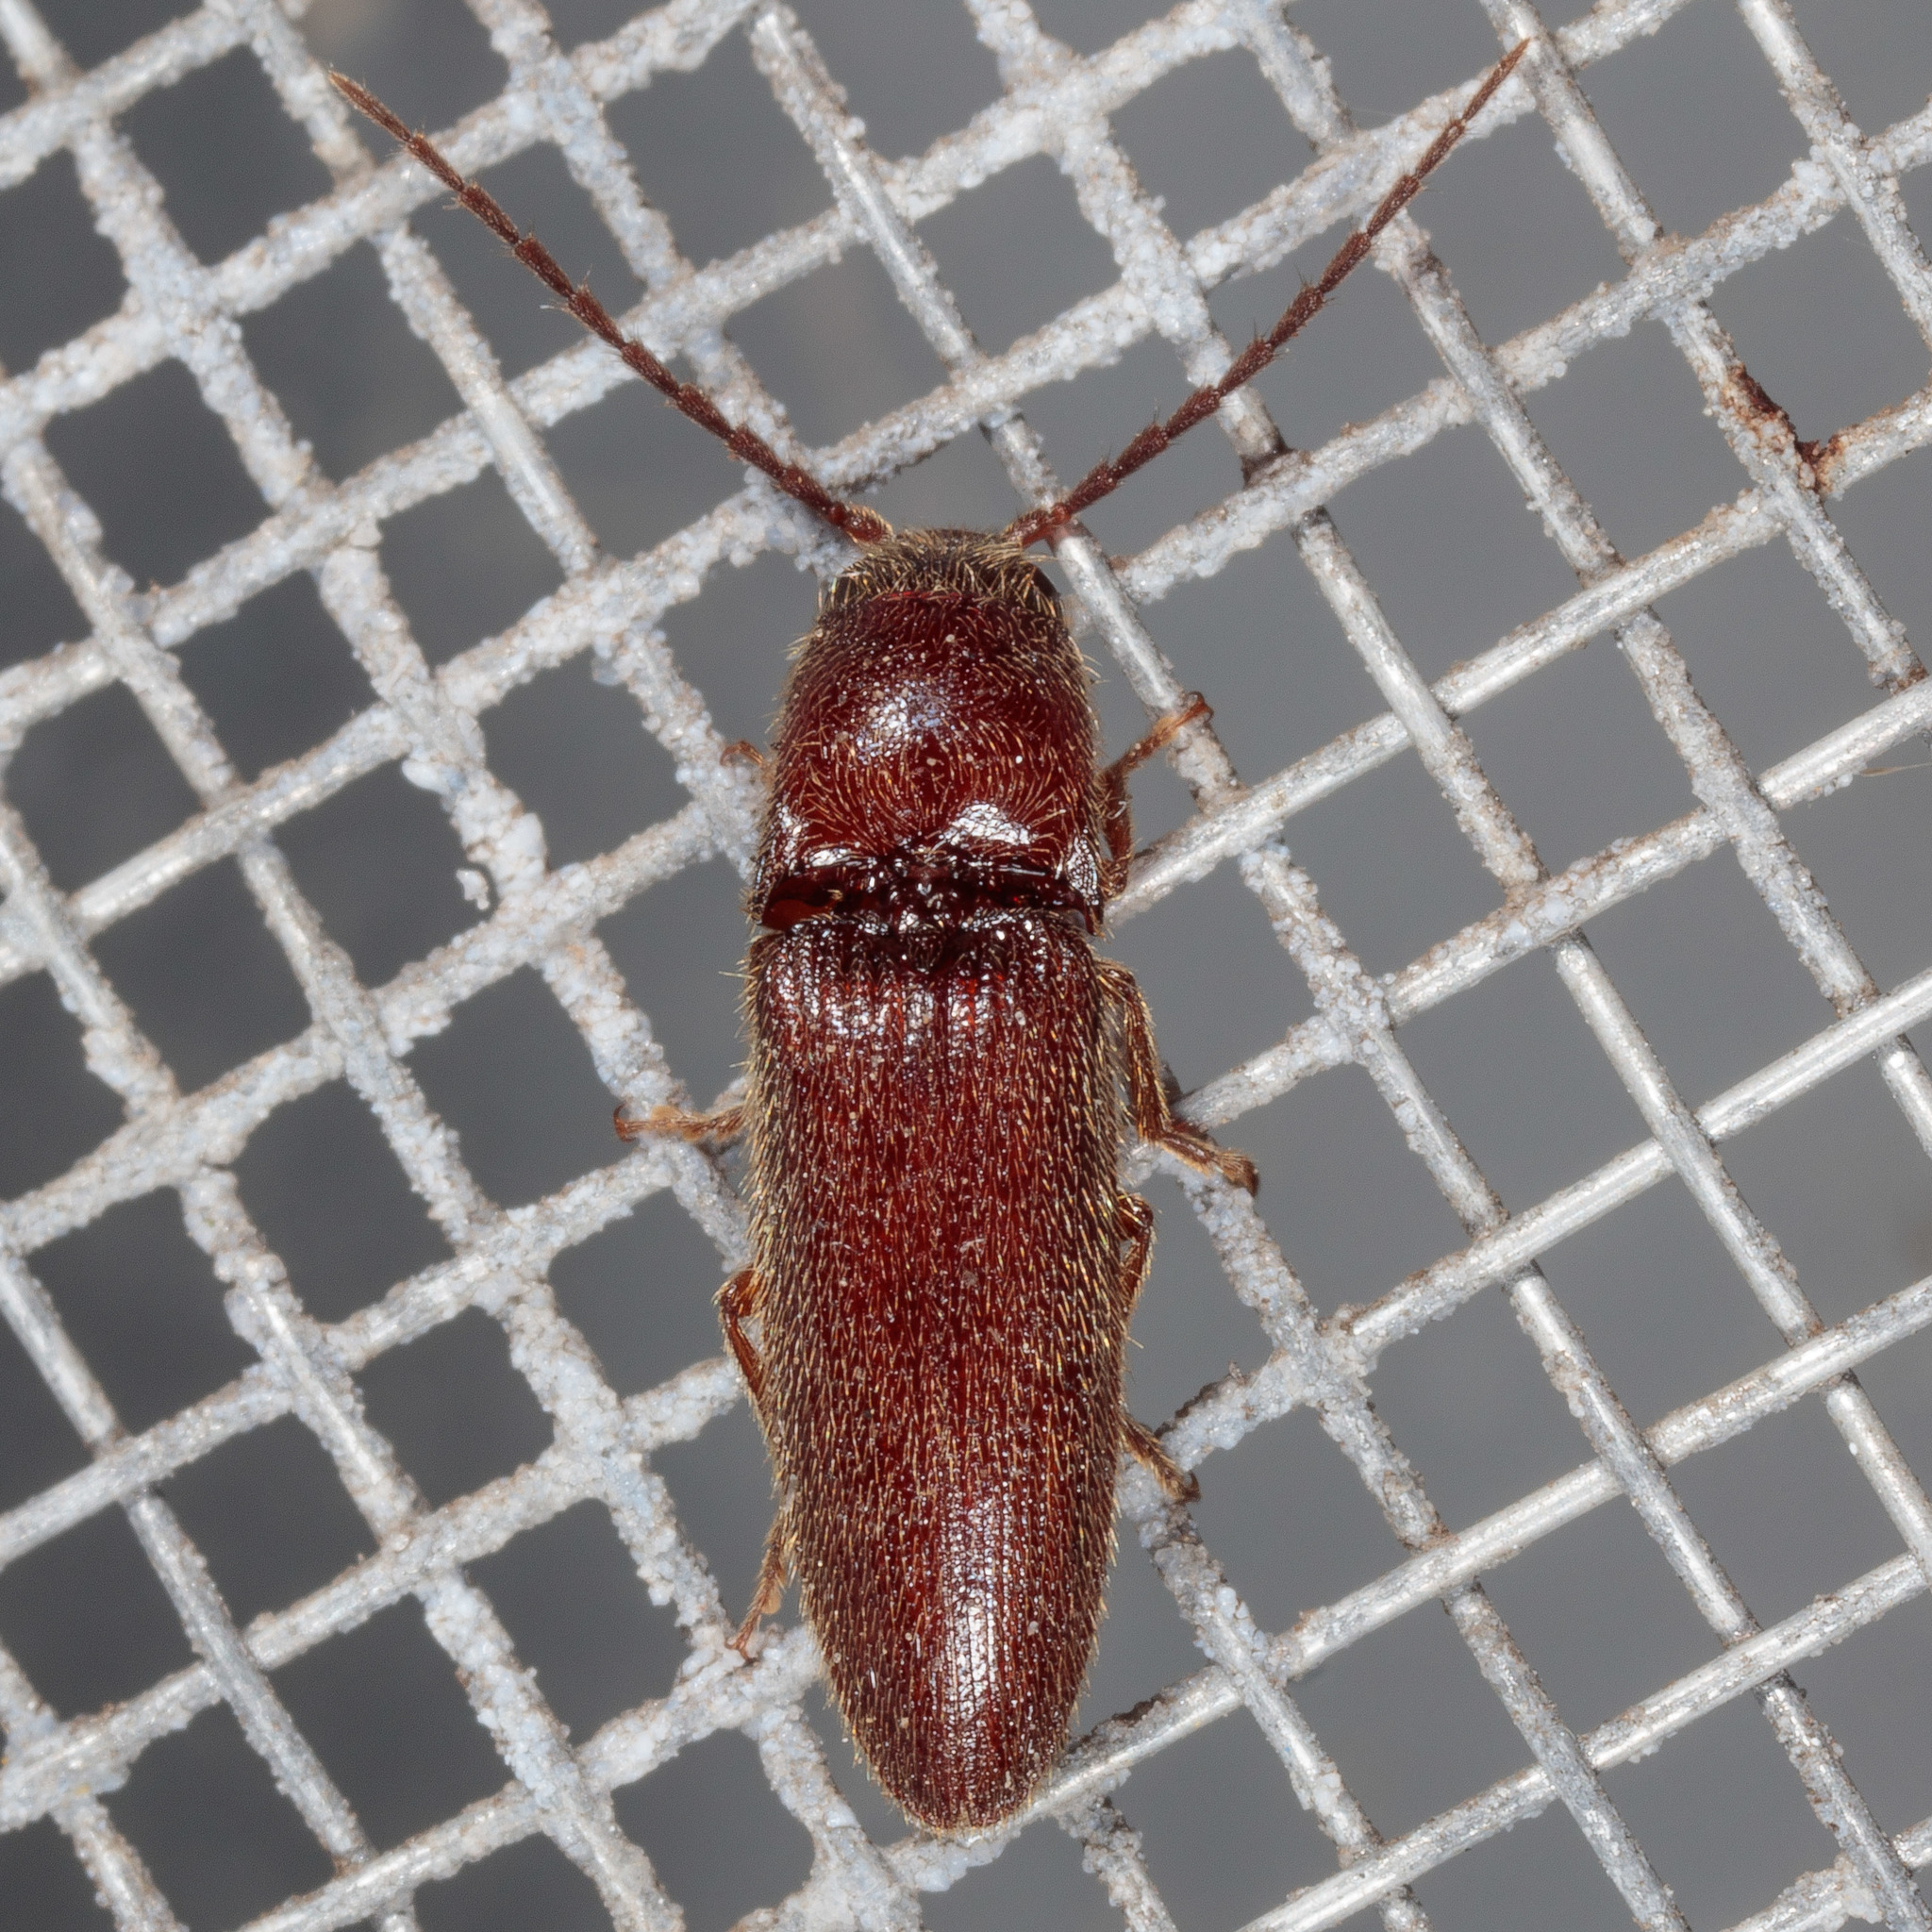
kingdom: Animalia
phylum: Arthropoda
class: Insecta
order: Coleoptera
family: Elateridae
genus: Dipropus
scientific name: Dipropus
